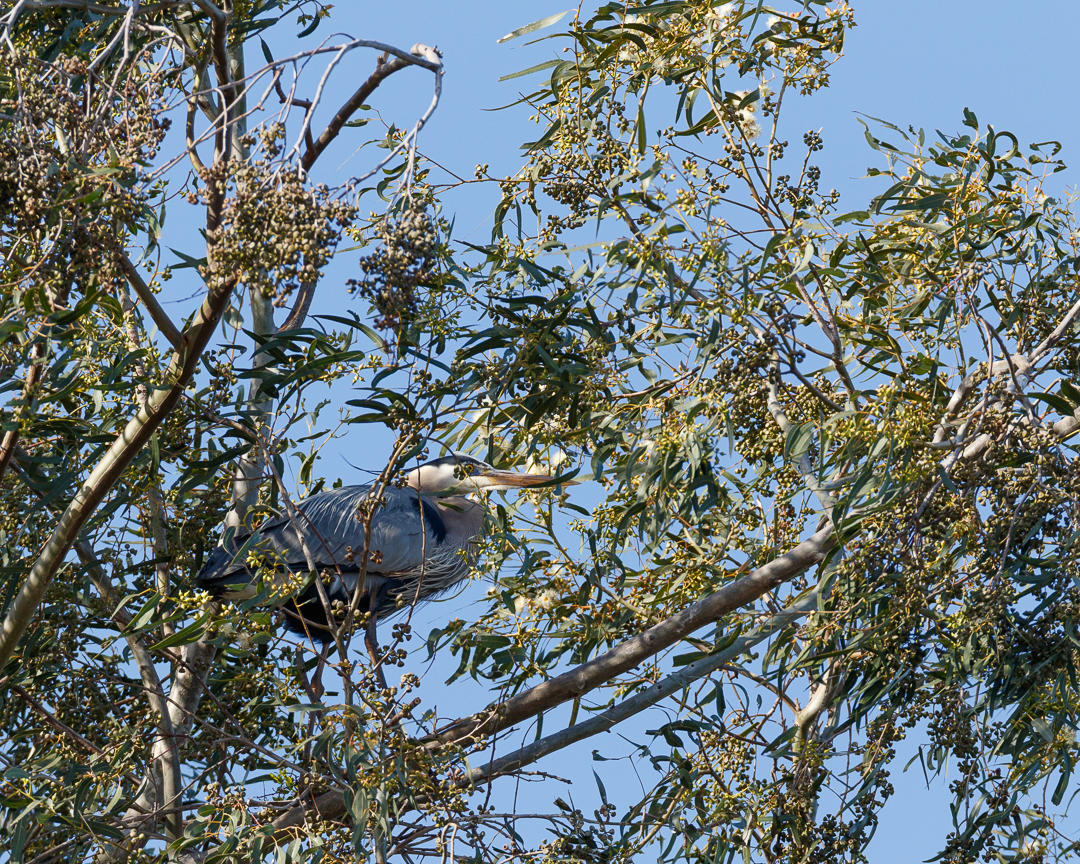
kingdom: Animalia
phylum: Chordata
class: Aves
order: Pelecaniformes
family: Ardeidae
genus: Ardea
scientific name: Ardea herodias
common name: Great blue heron
